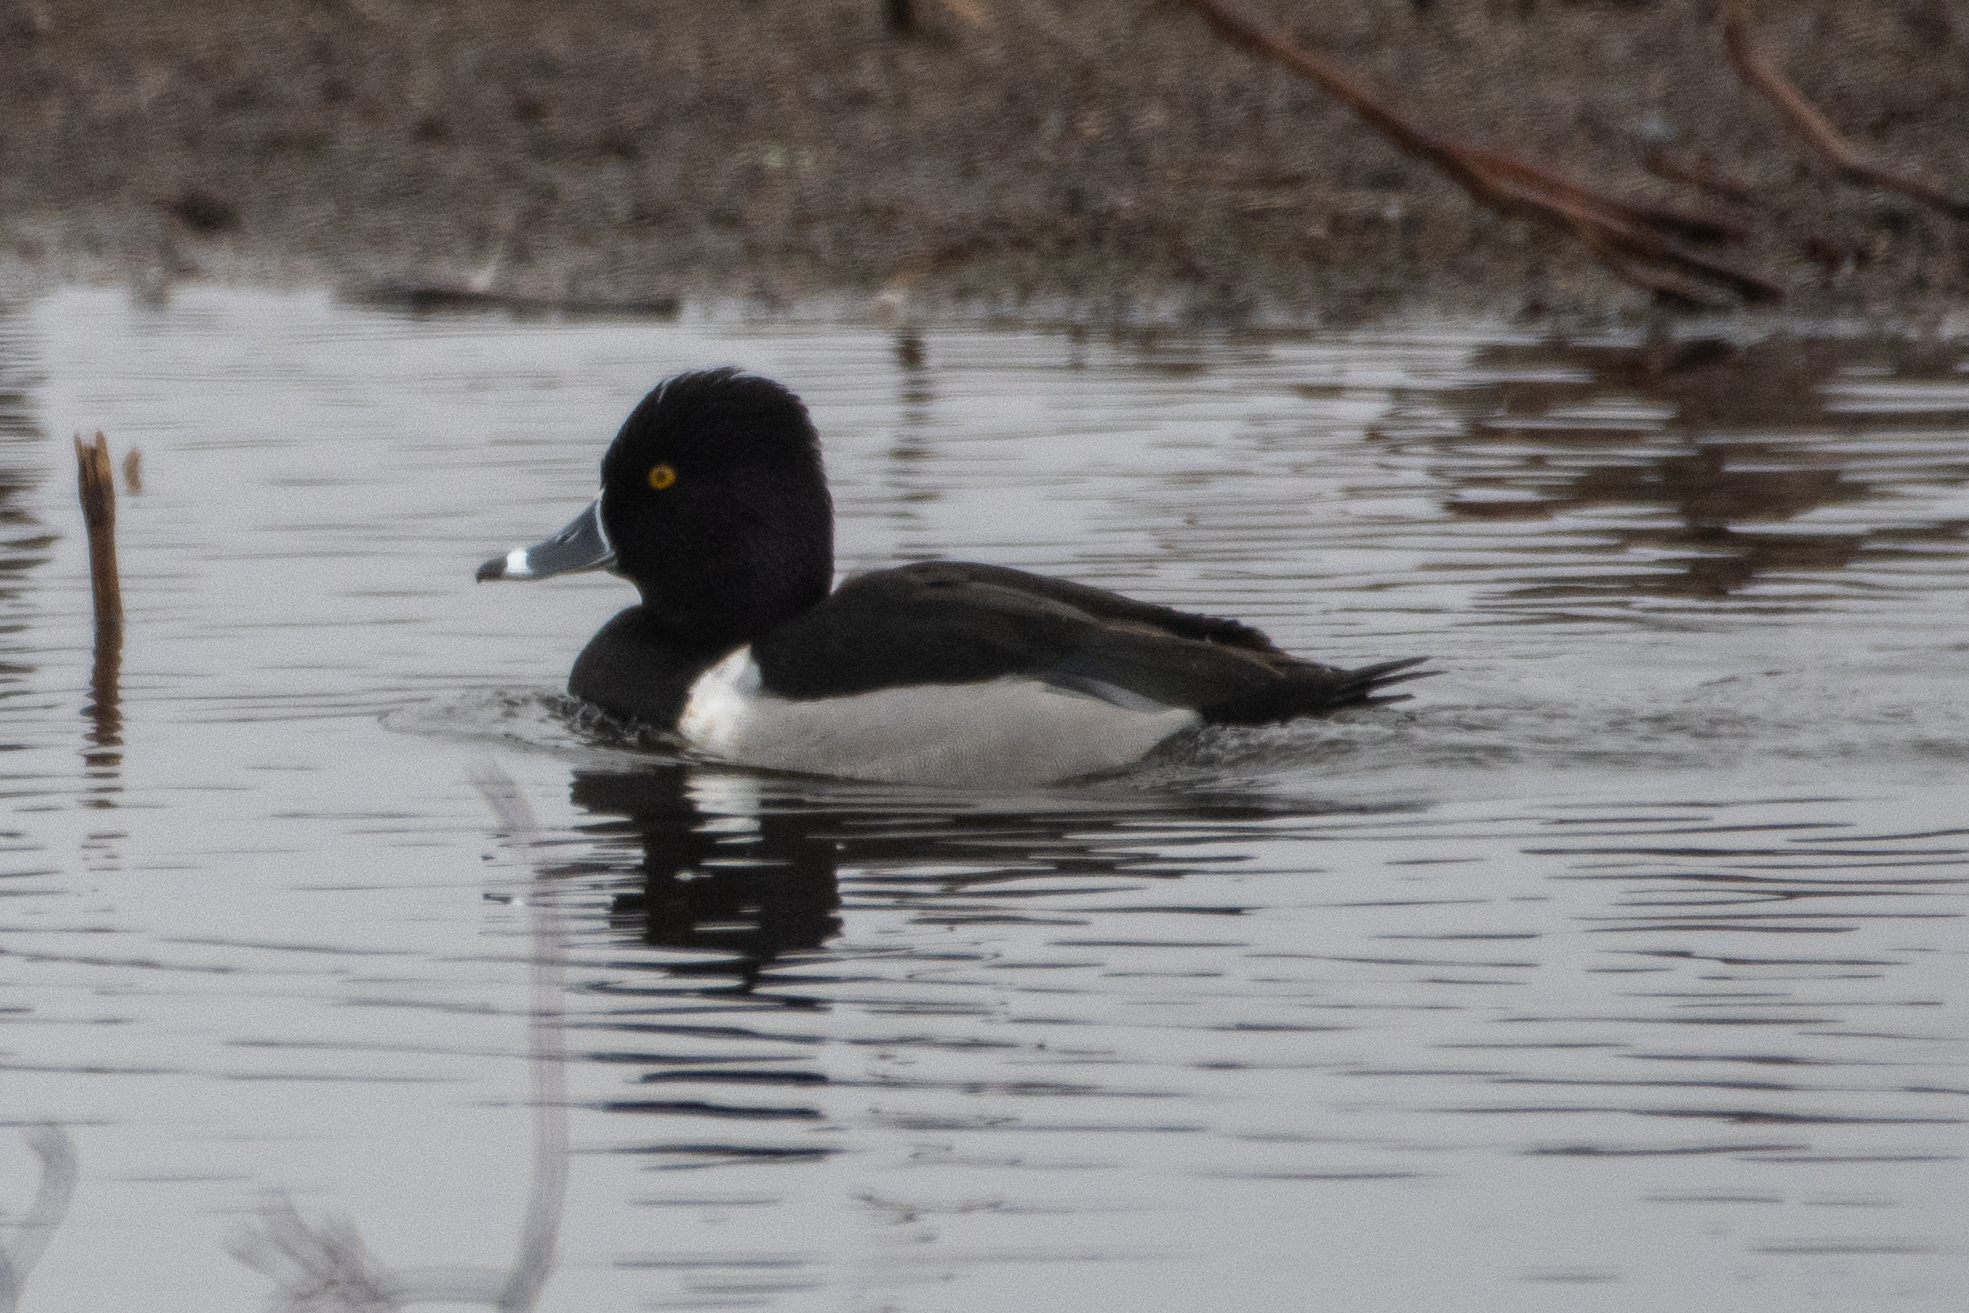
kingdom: Animalia
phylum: Chordata
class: Aves
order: Anseriformes
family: Anatidae
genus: Aythya
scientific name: Aythya collaris
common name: Ring-necked duck
